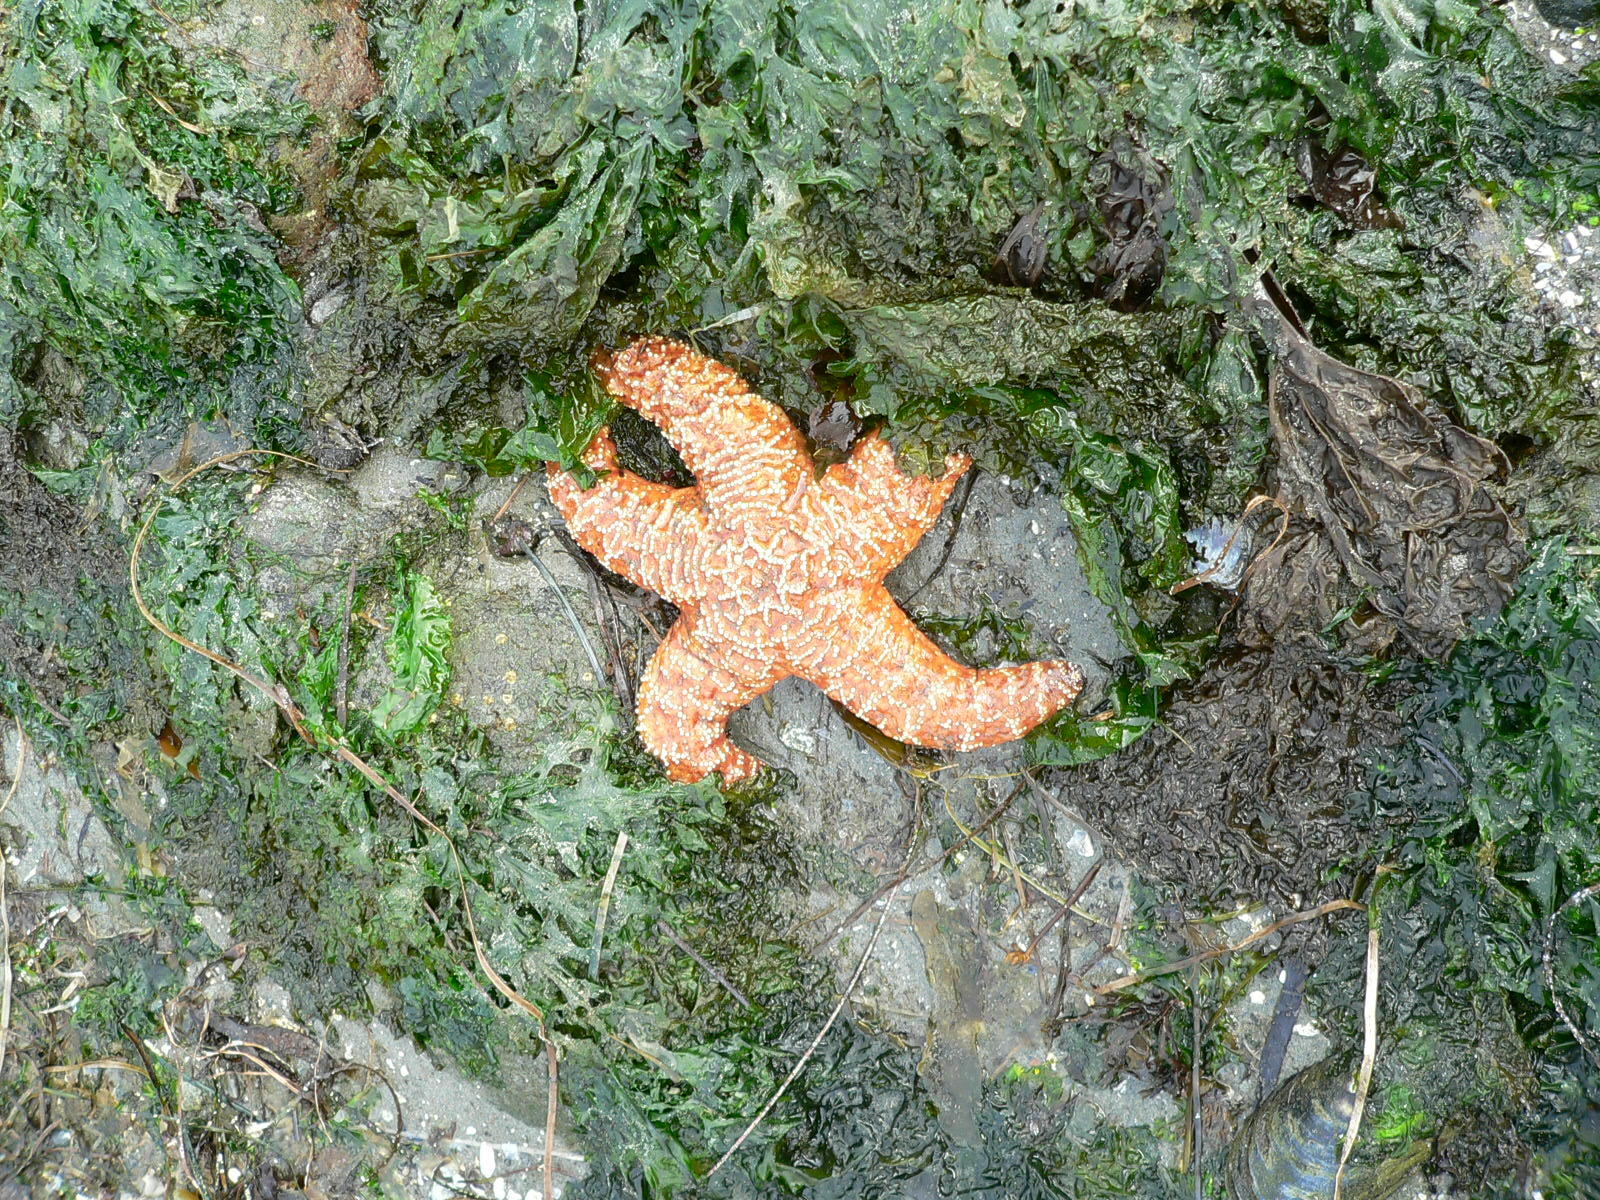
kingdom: Animalia
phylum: Echinodermata
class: Asteroidea
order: Forcipulatida
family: Asteriidae
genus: Pisaster
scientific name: Pisaster ochraceus
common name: Ochre stars
